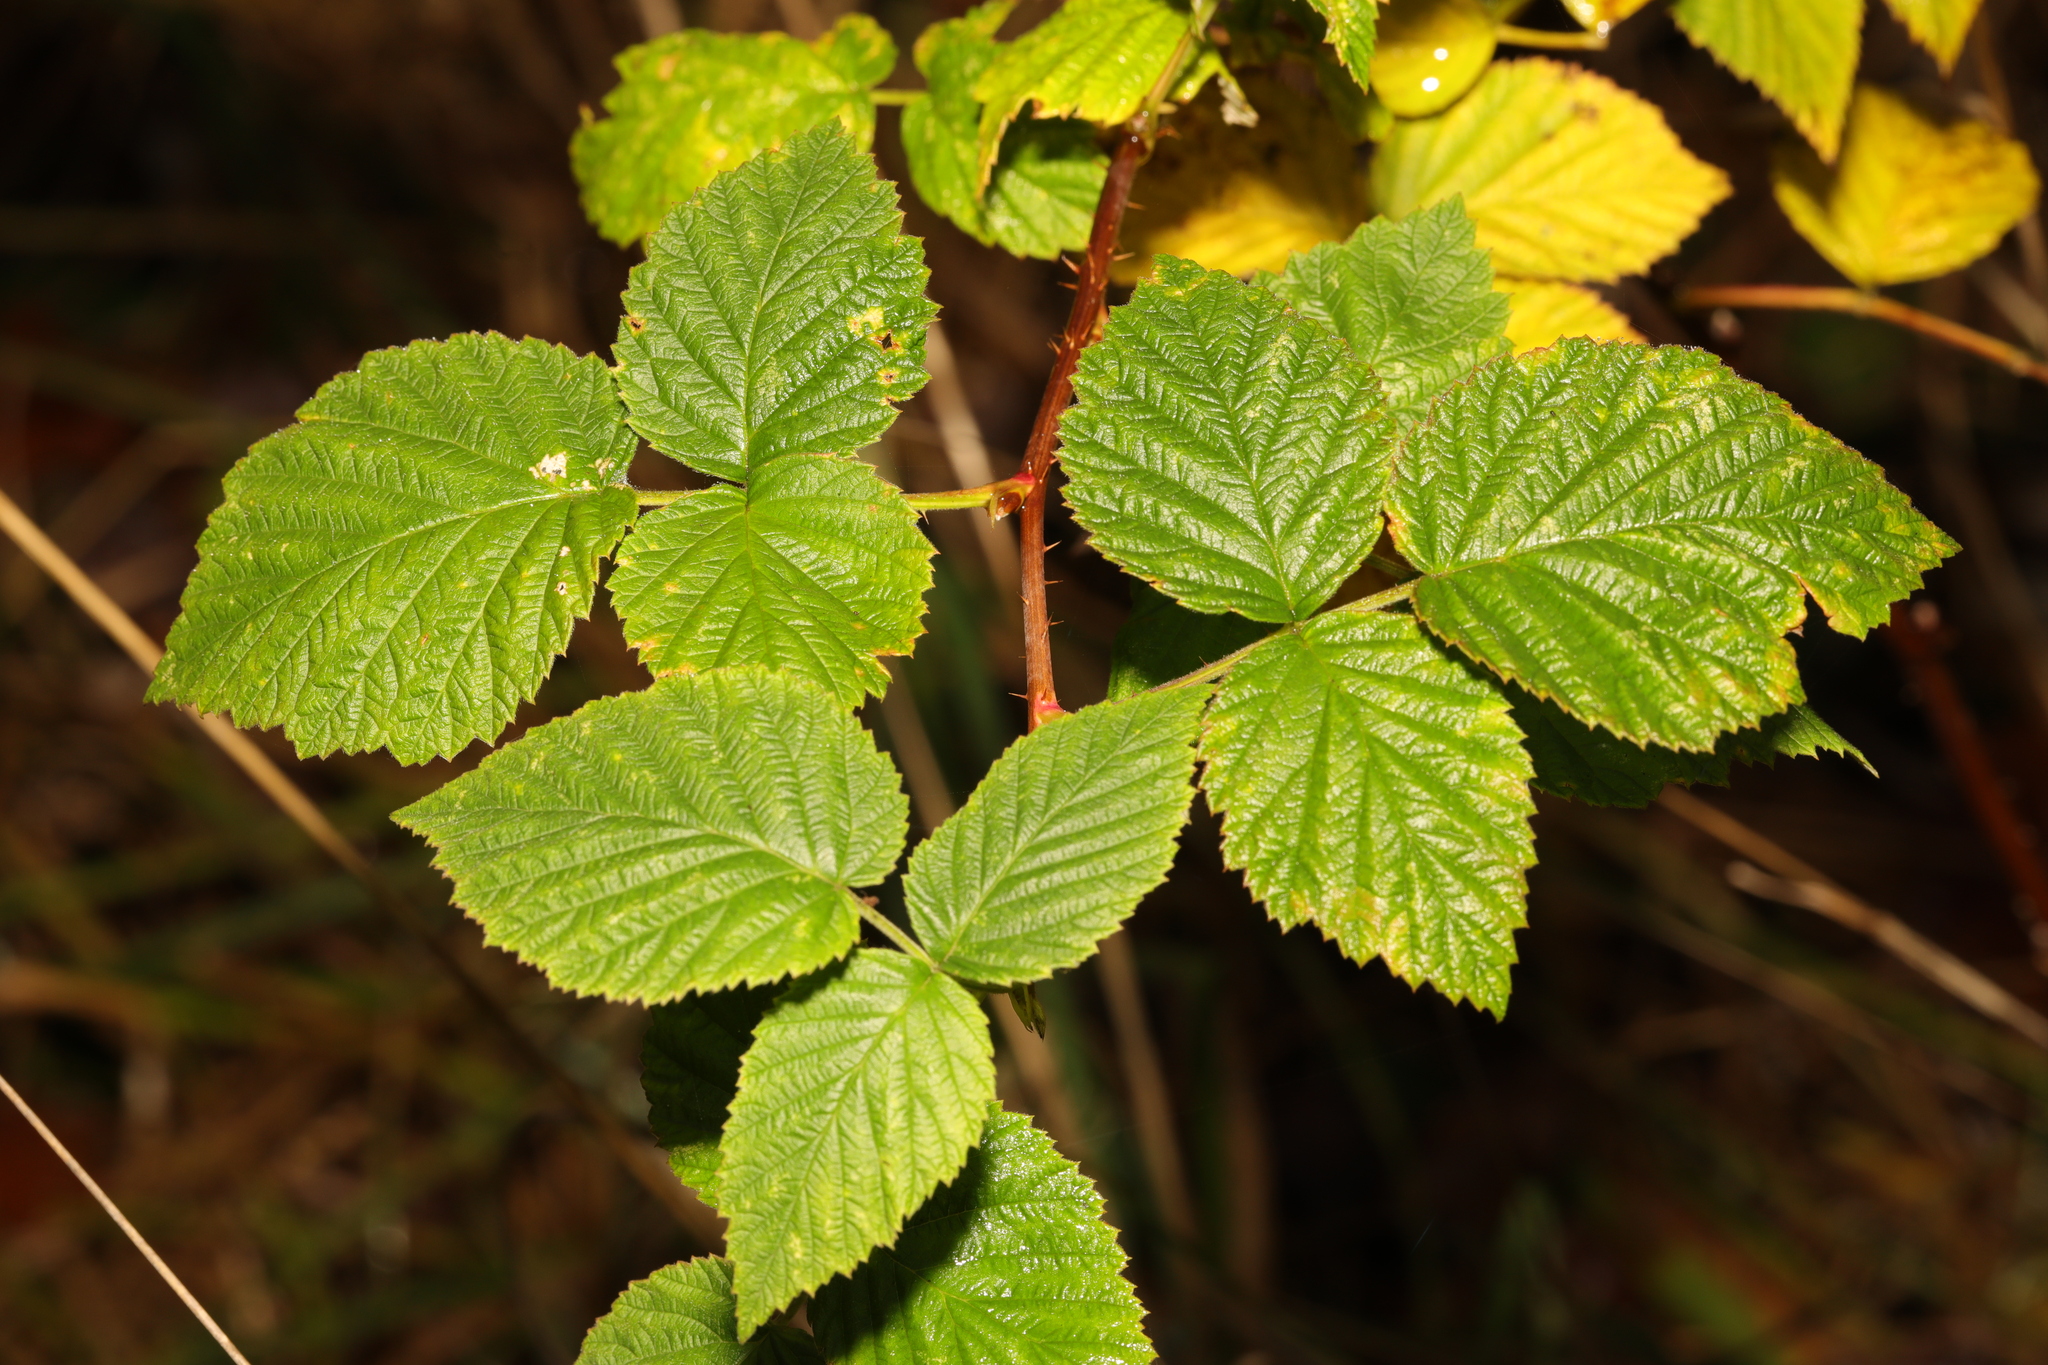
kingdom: Plantae
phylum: Tracheophyta
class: Magnoliopsida
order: Rosales
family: Rosaceae
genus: Rubus
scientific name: Rubus idaeus
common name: Raspberry
